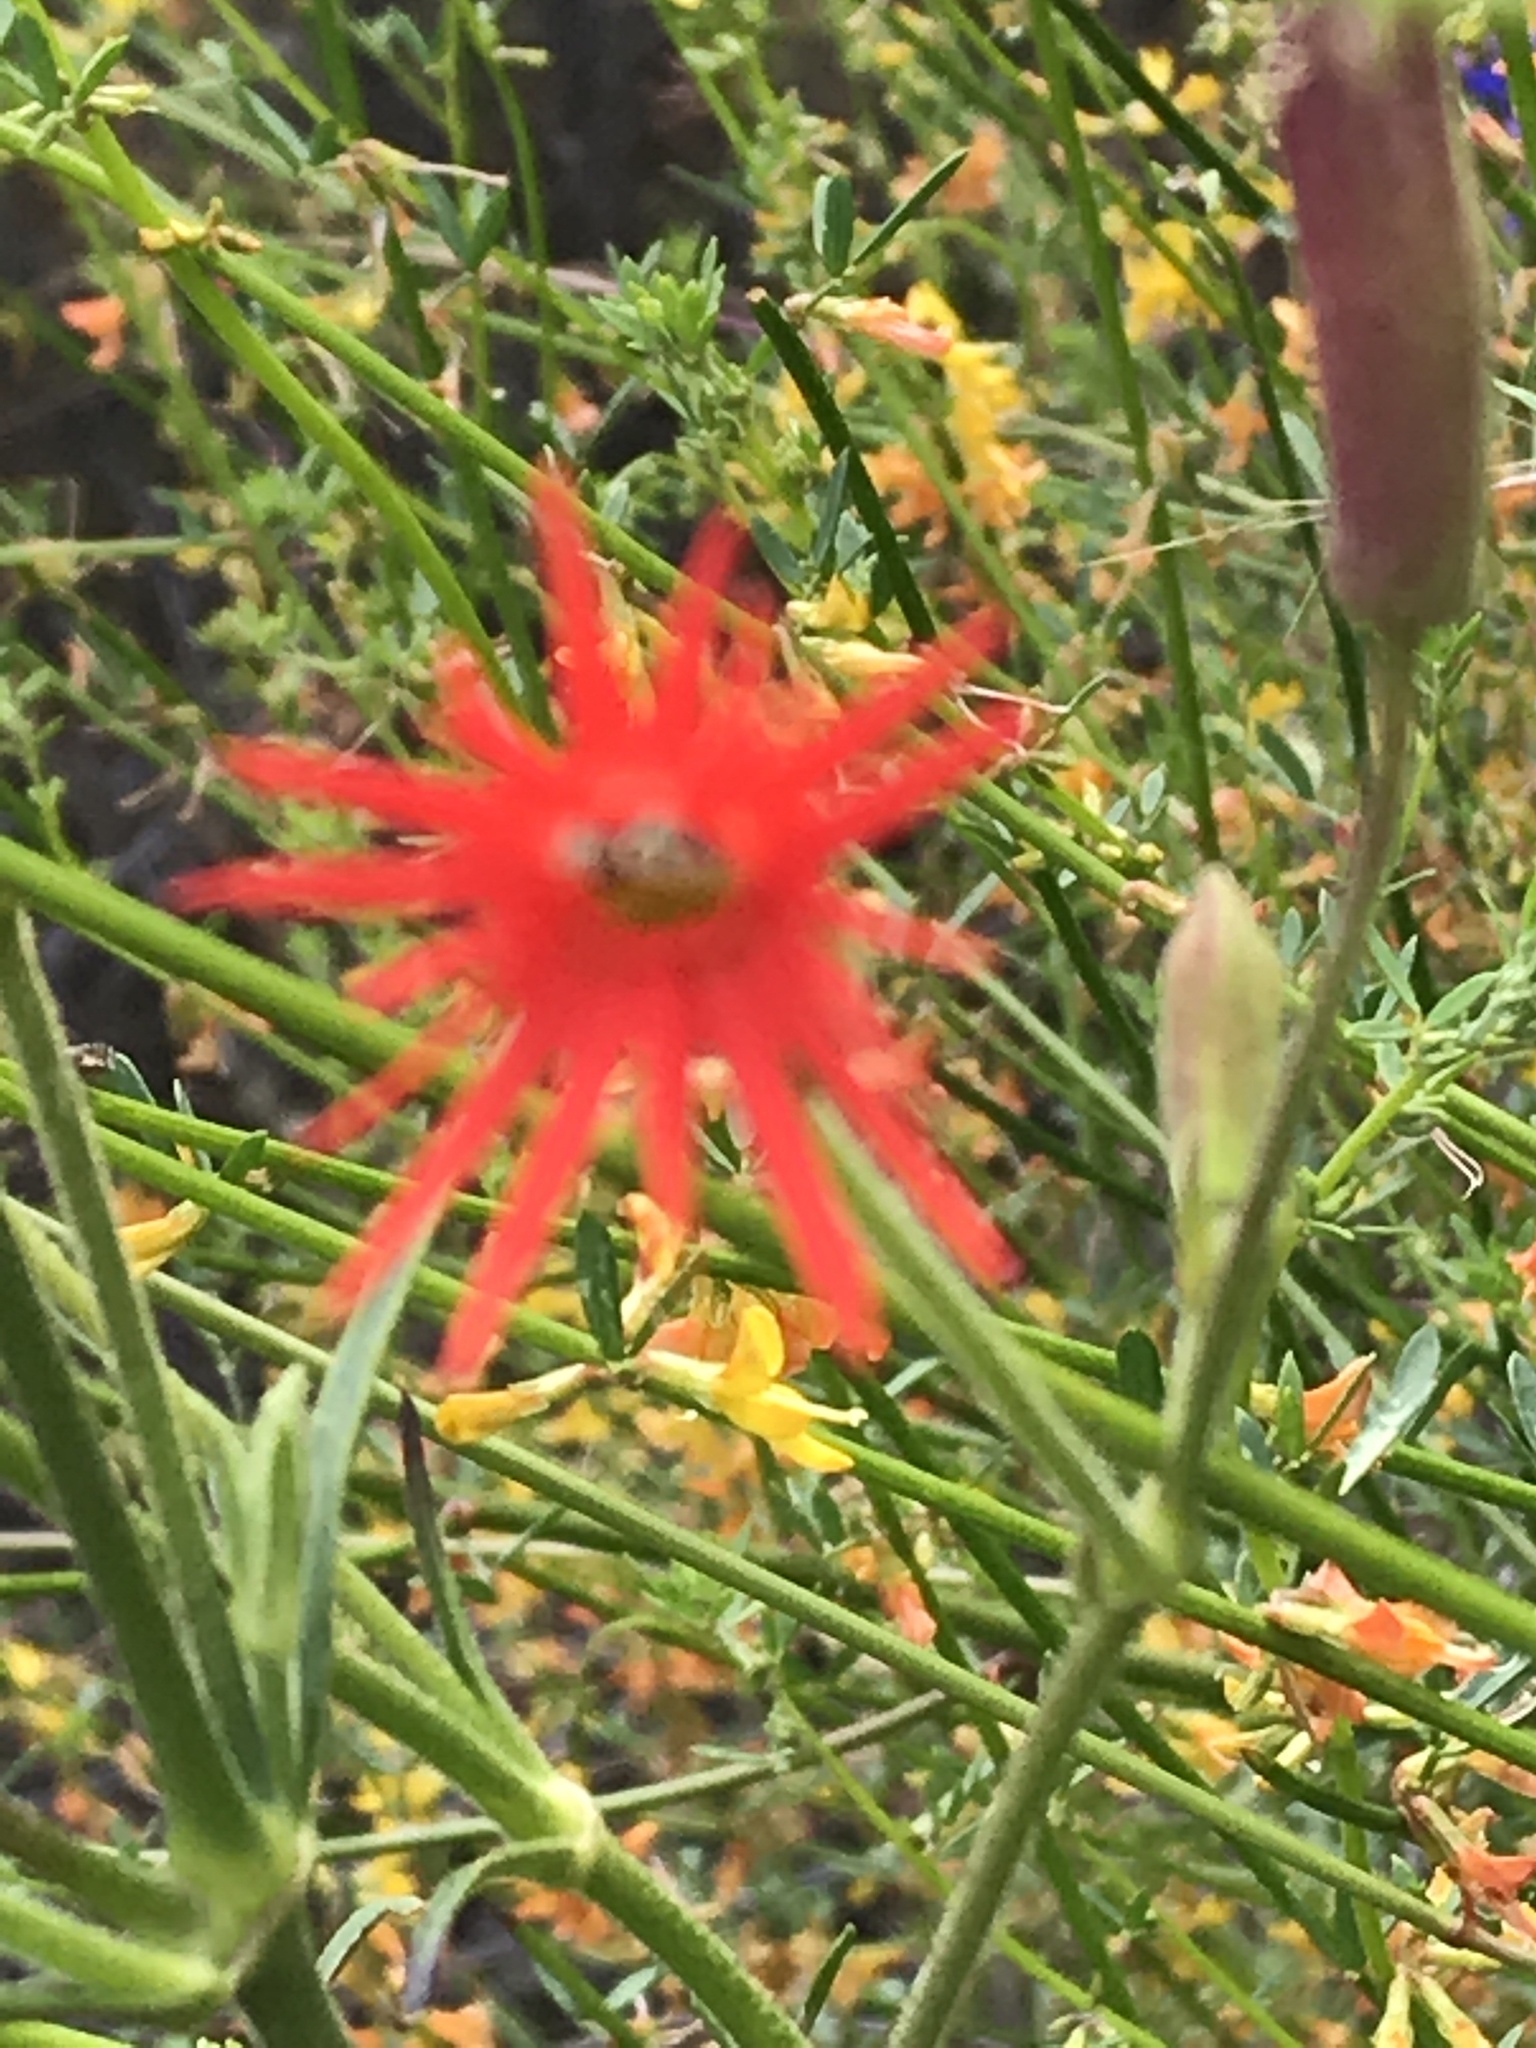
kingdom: Plantae
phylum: Tracheophyta
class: Magnoliopsida
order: Caryophyllales
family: Caryophyllaceae
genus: Silene
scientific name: Silene laciniata
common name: Indian-pink
